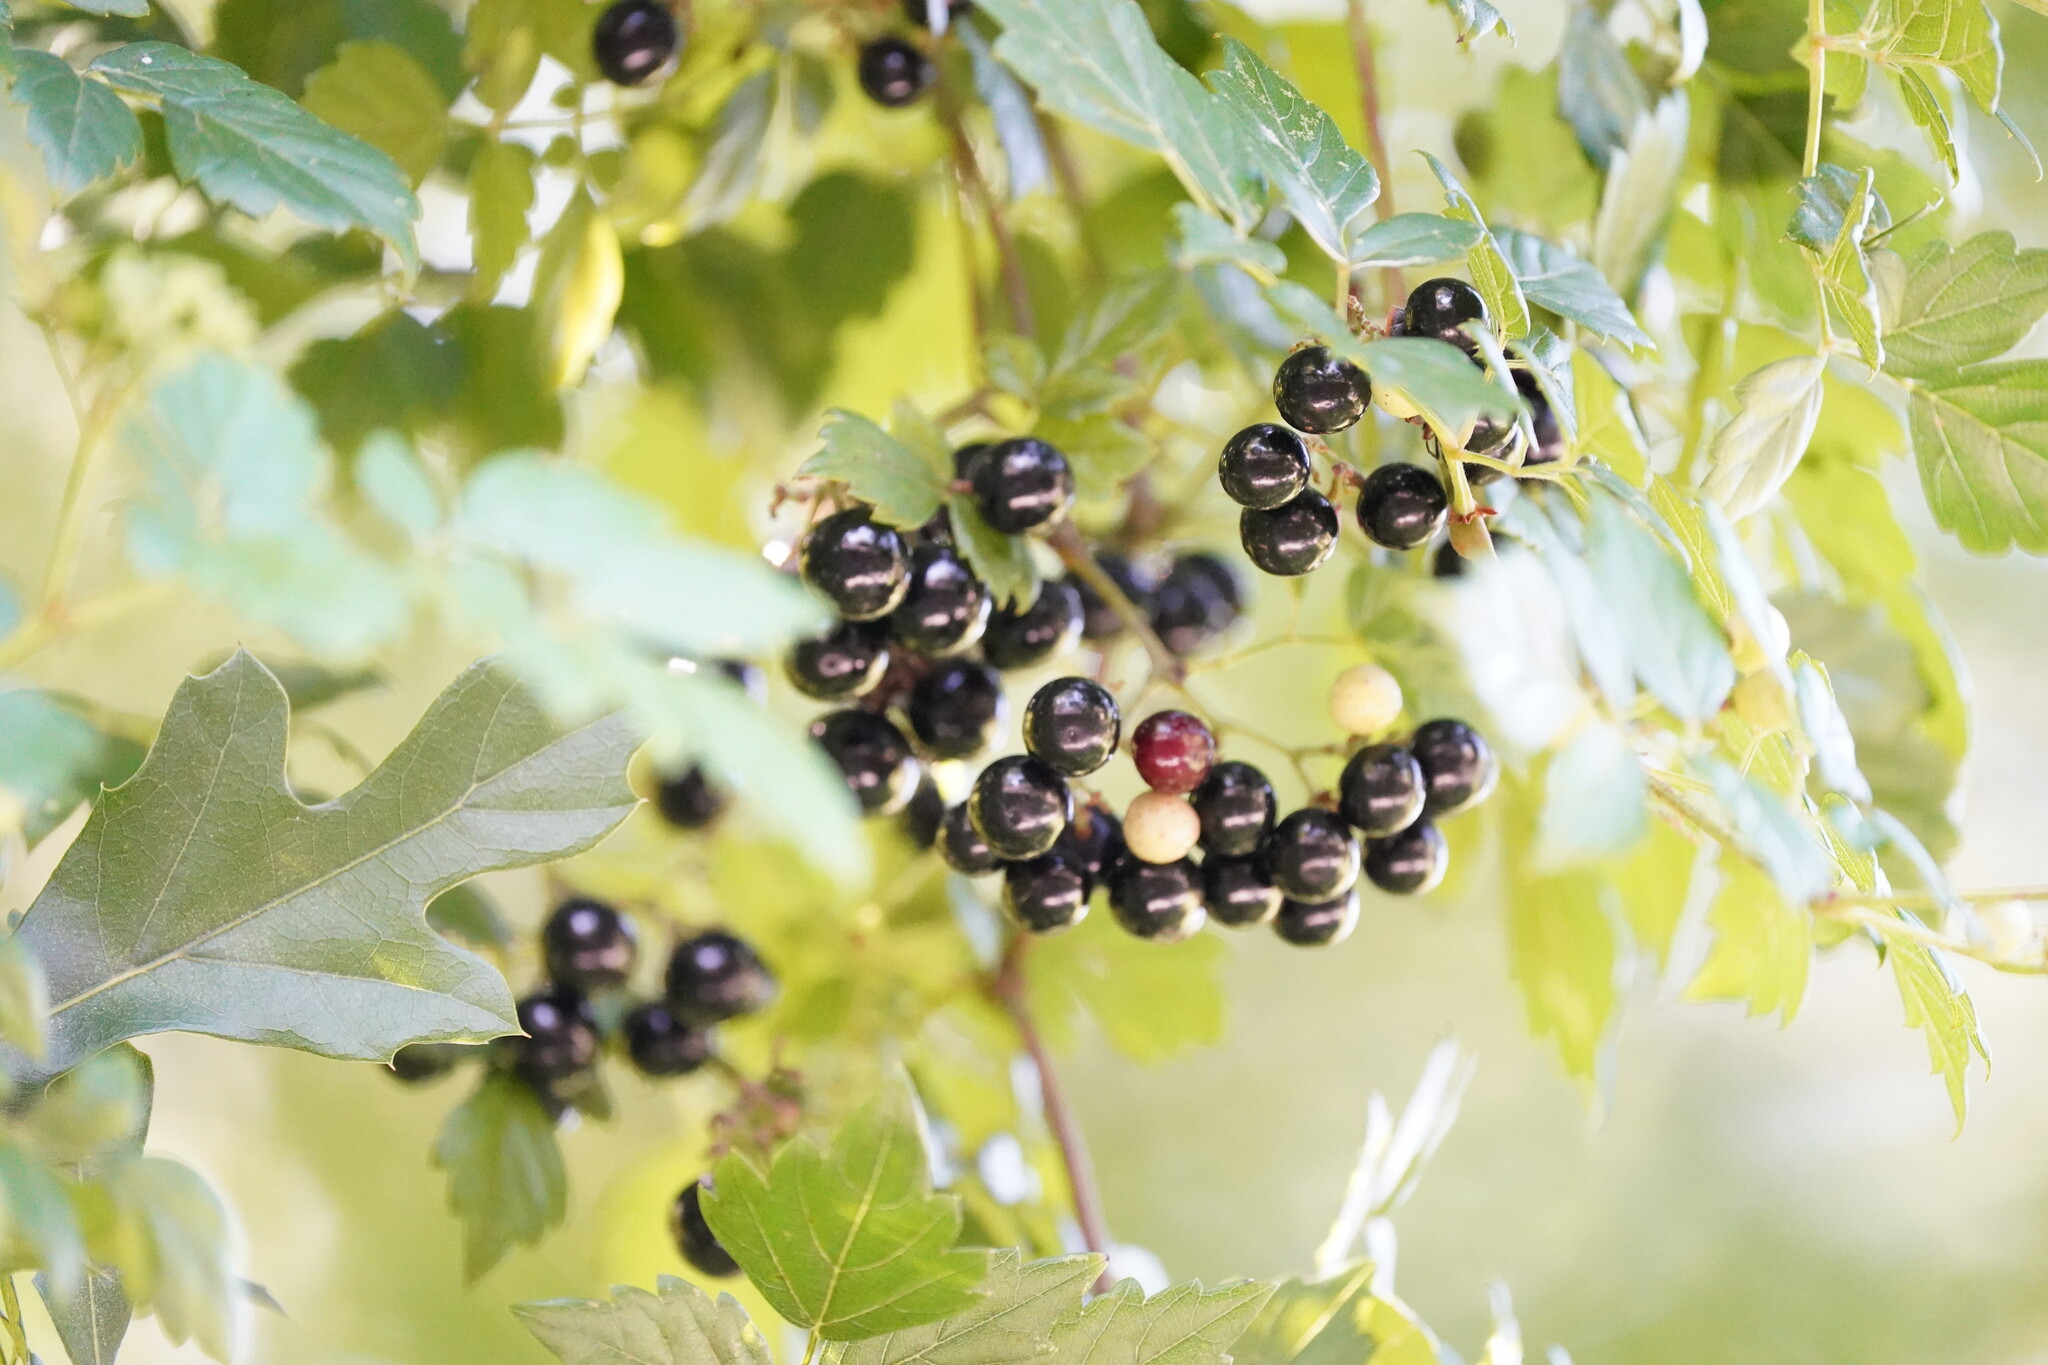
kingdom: Plantae
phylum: Tracheophyta
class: Magnoliopsida
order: Vitales
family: Vitaceae
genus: Nekemias
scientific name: Nekemias arborea
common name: Peppervine
